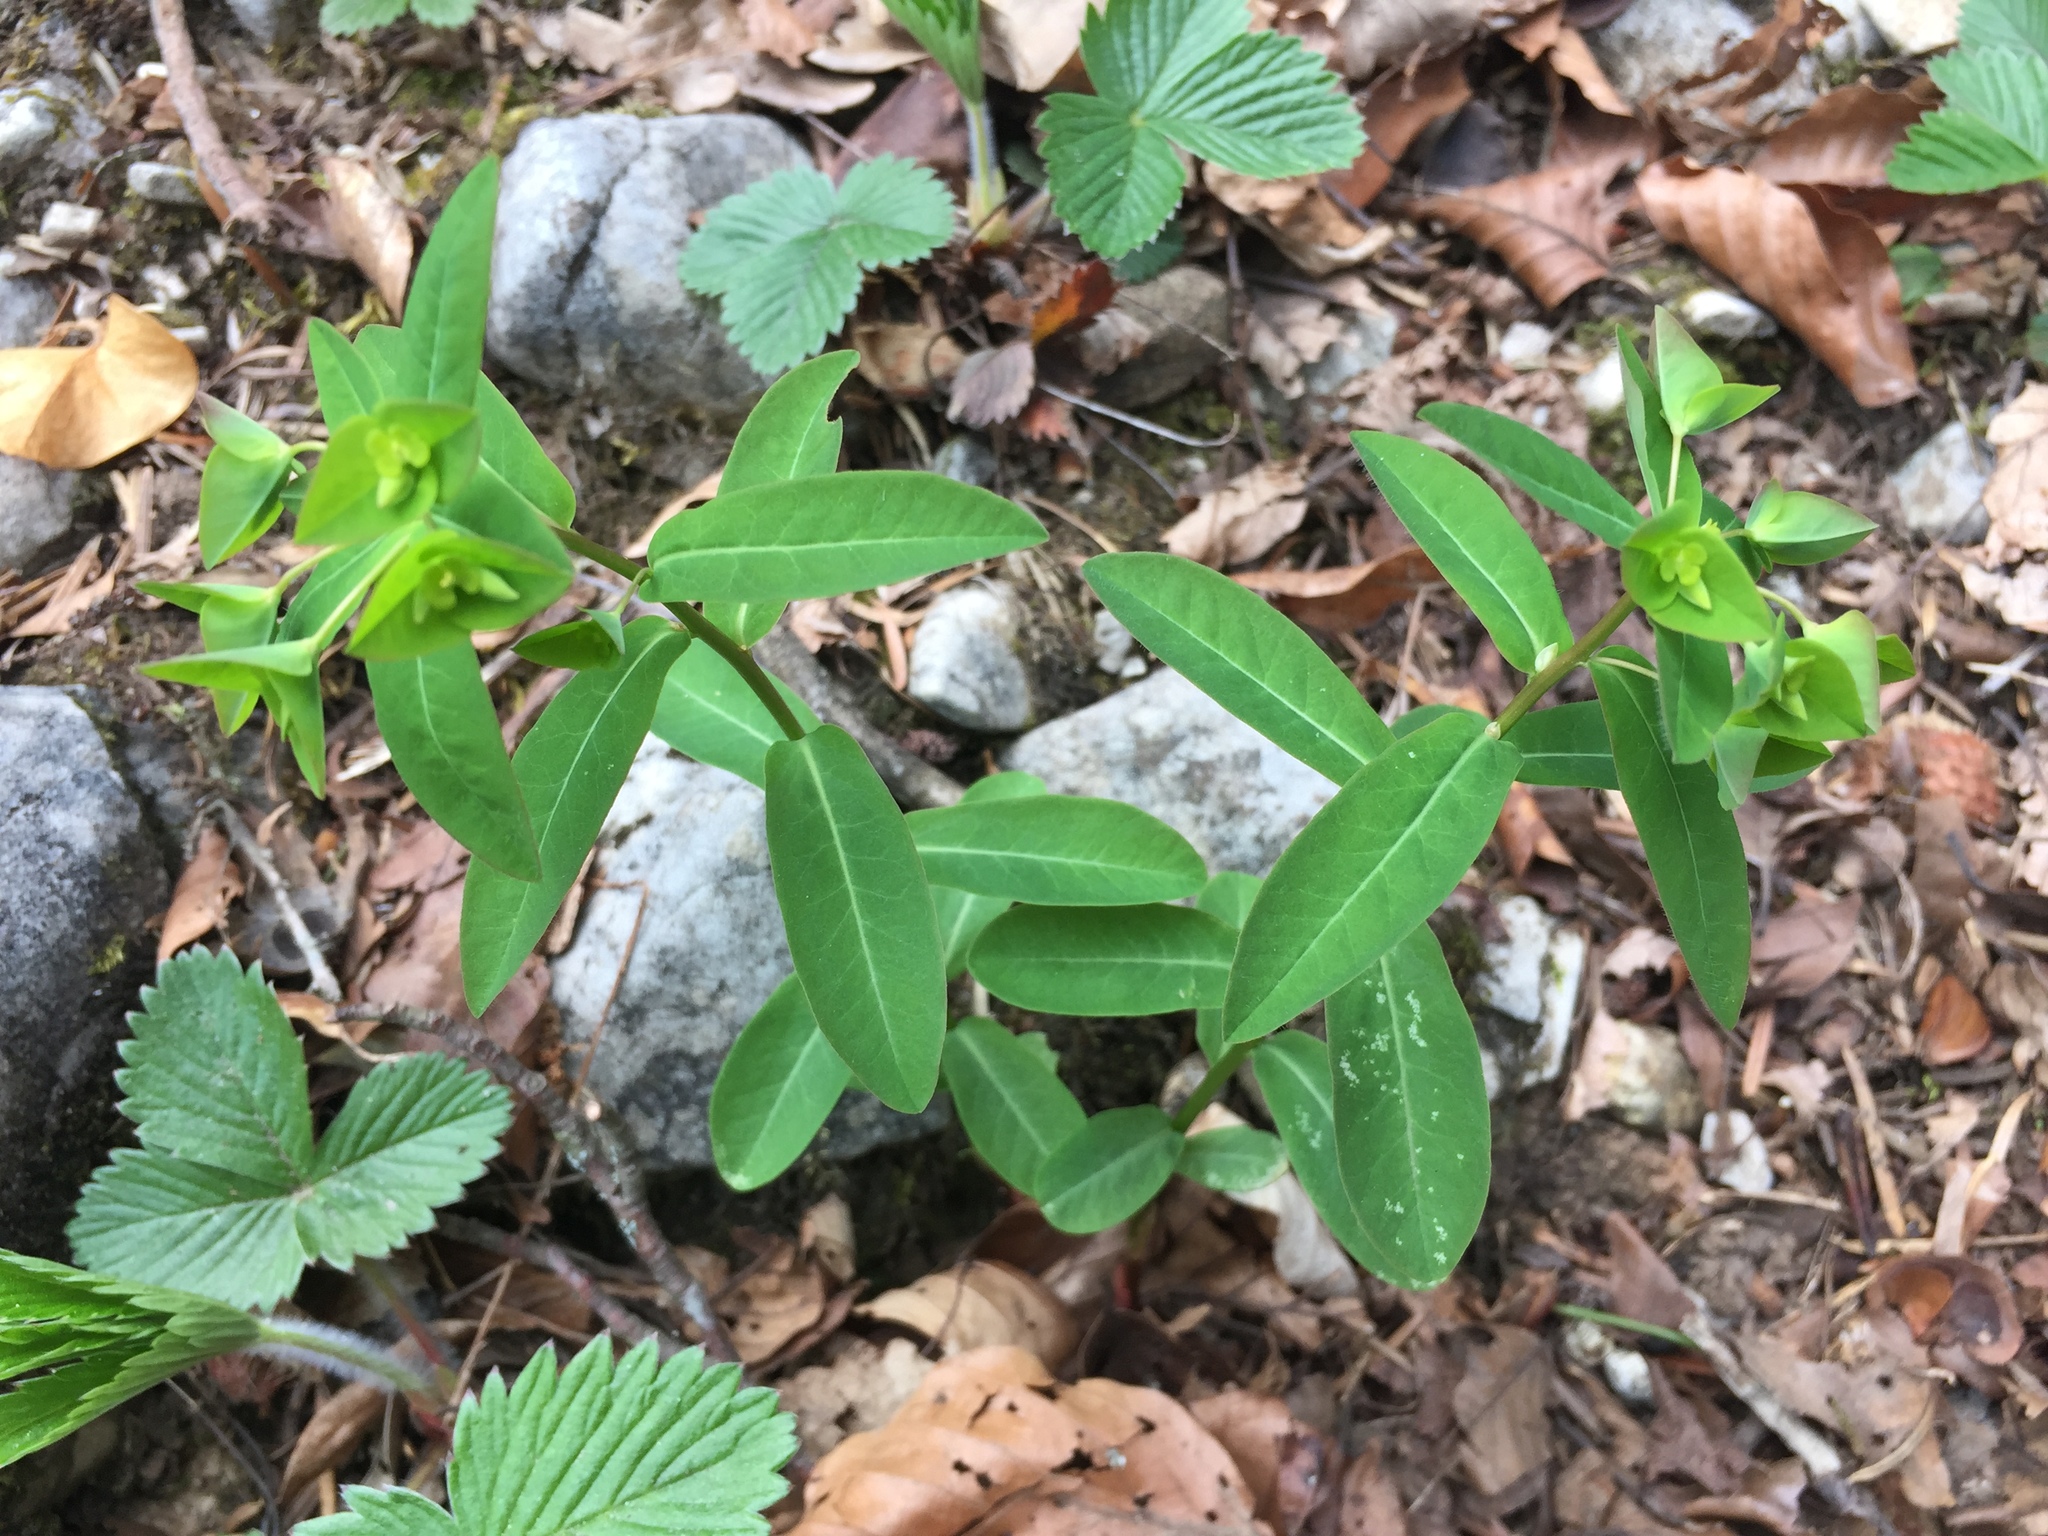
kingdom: Plantae
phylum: Tracheophyta
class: Magnoliopsida
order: Malpighiales
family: Euphorbiaceae
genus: Euphorbia
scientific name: Euphorbia dulcis
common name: Sweet spurge
